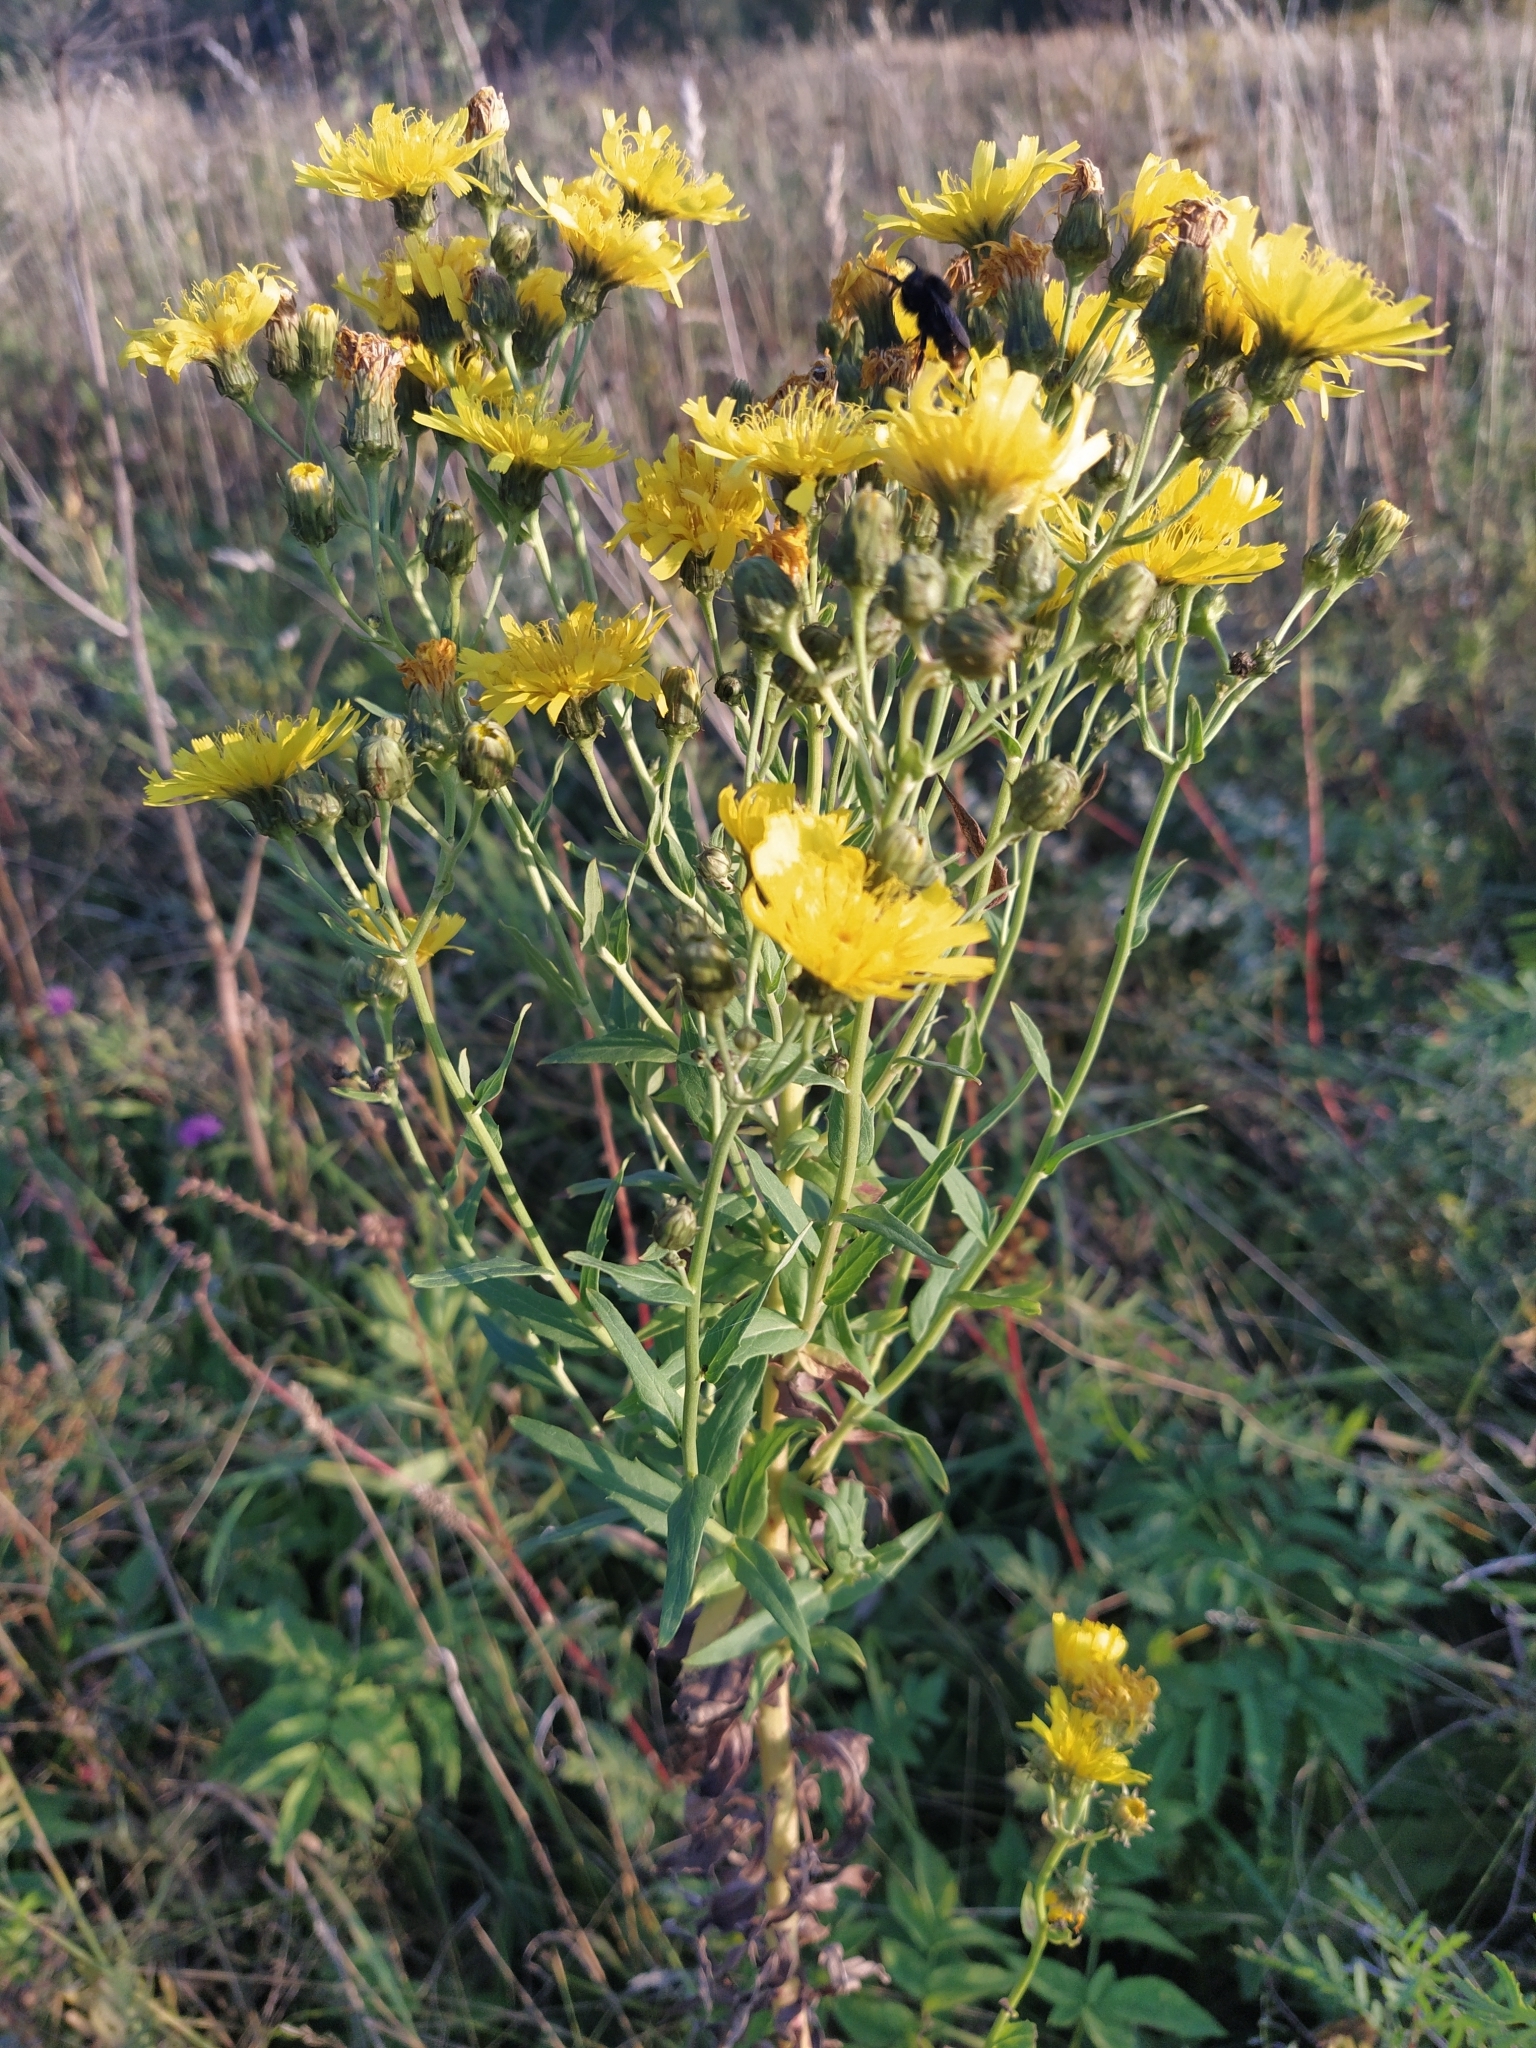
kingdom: Plantae
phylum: Tracheophyta
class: Magnoliopsida
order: Asterales
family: Asteraceae
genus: Hieracium
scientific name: Hieracium umbellatum
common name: Northern hawkweed
